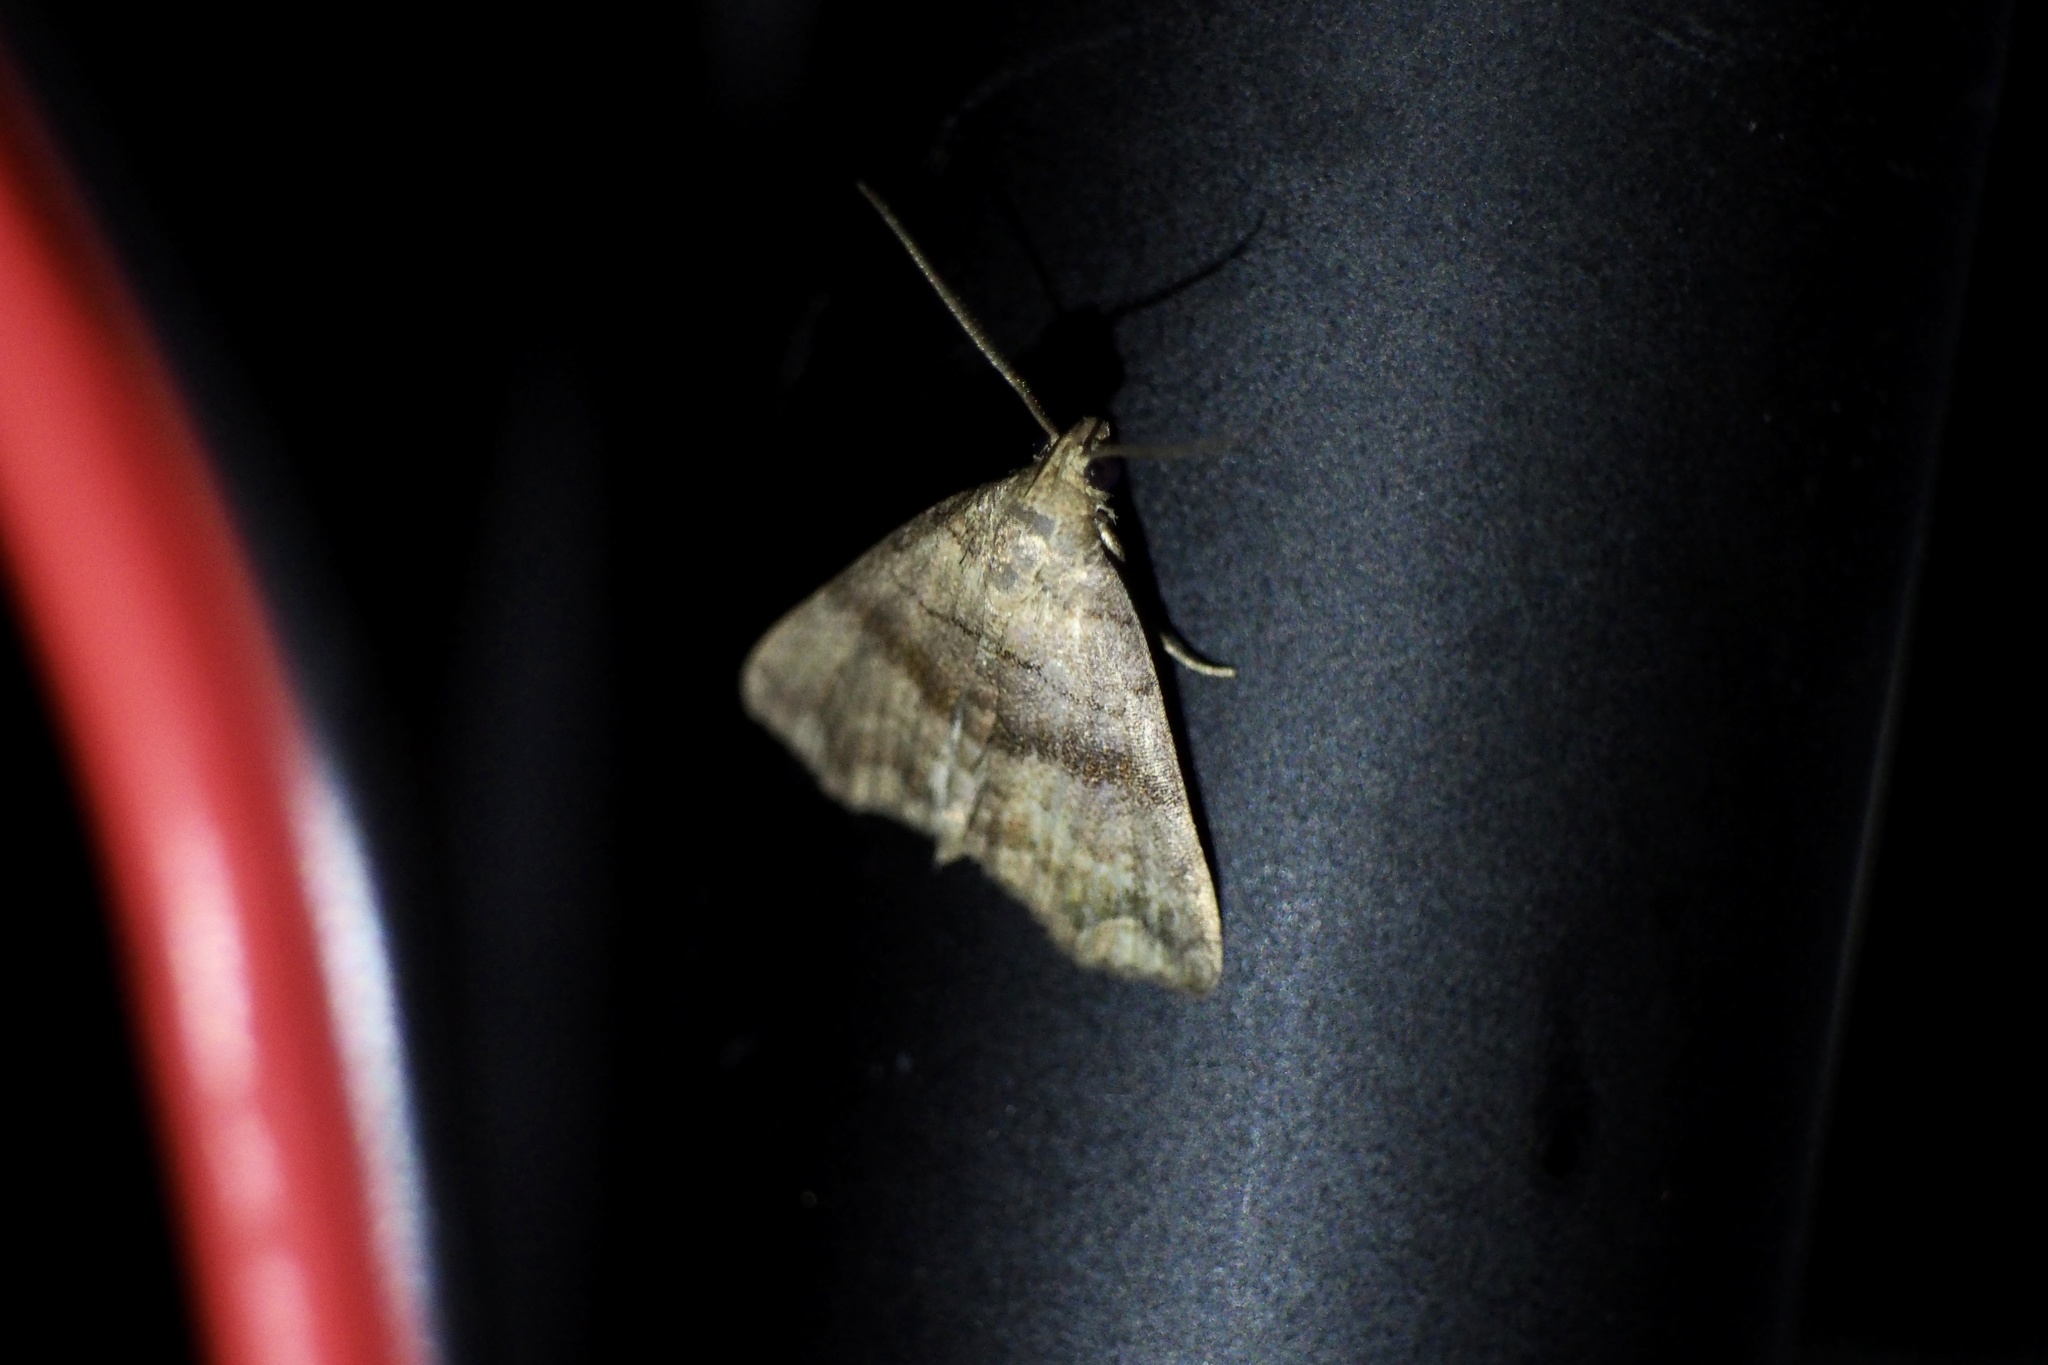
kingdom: Animalia
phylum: Arthropoda
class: Insecta
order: Lepidoptera
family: Erebidae
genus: Polypogon
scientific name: Polypogon Hipoepa fractalis
